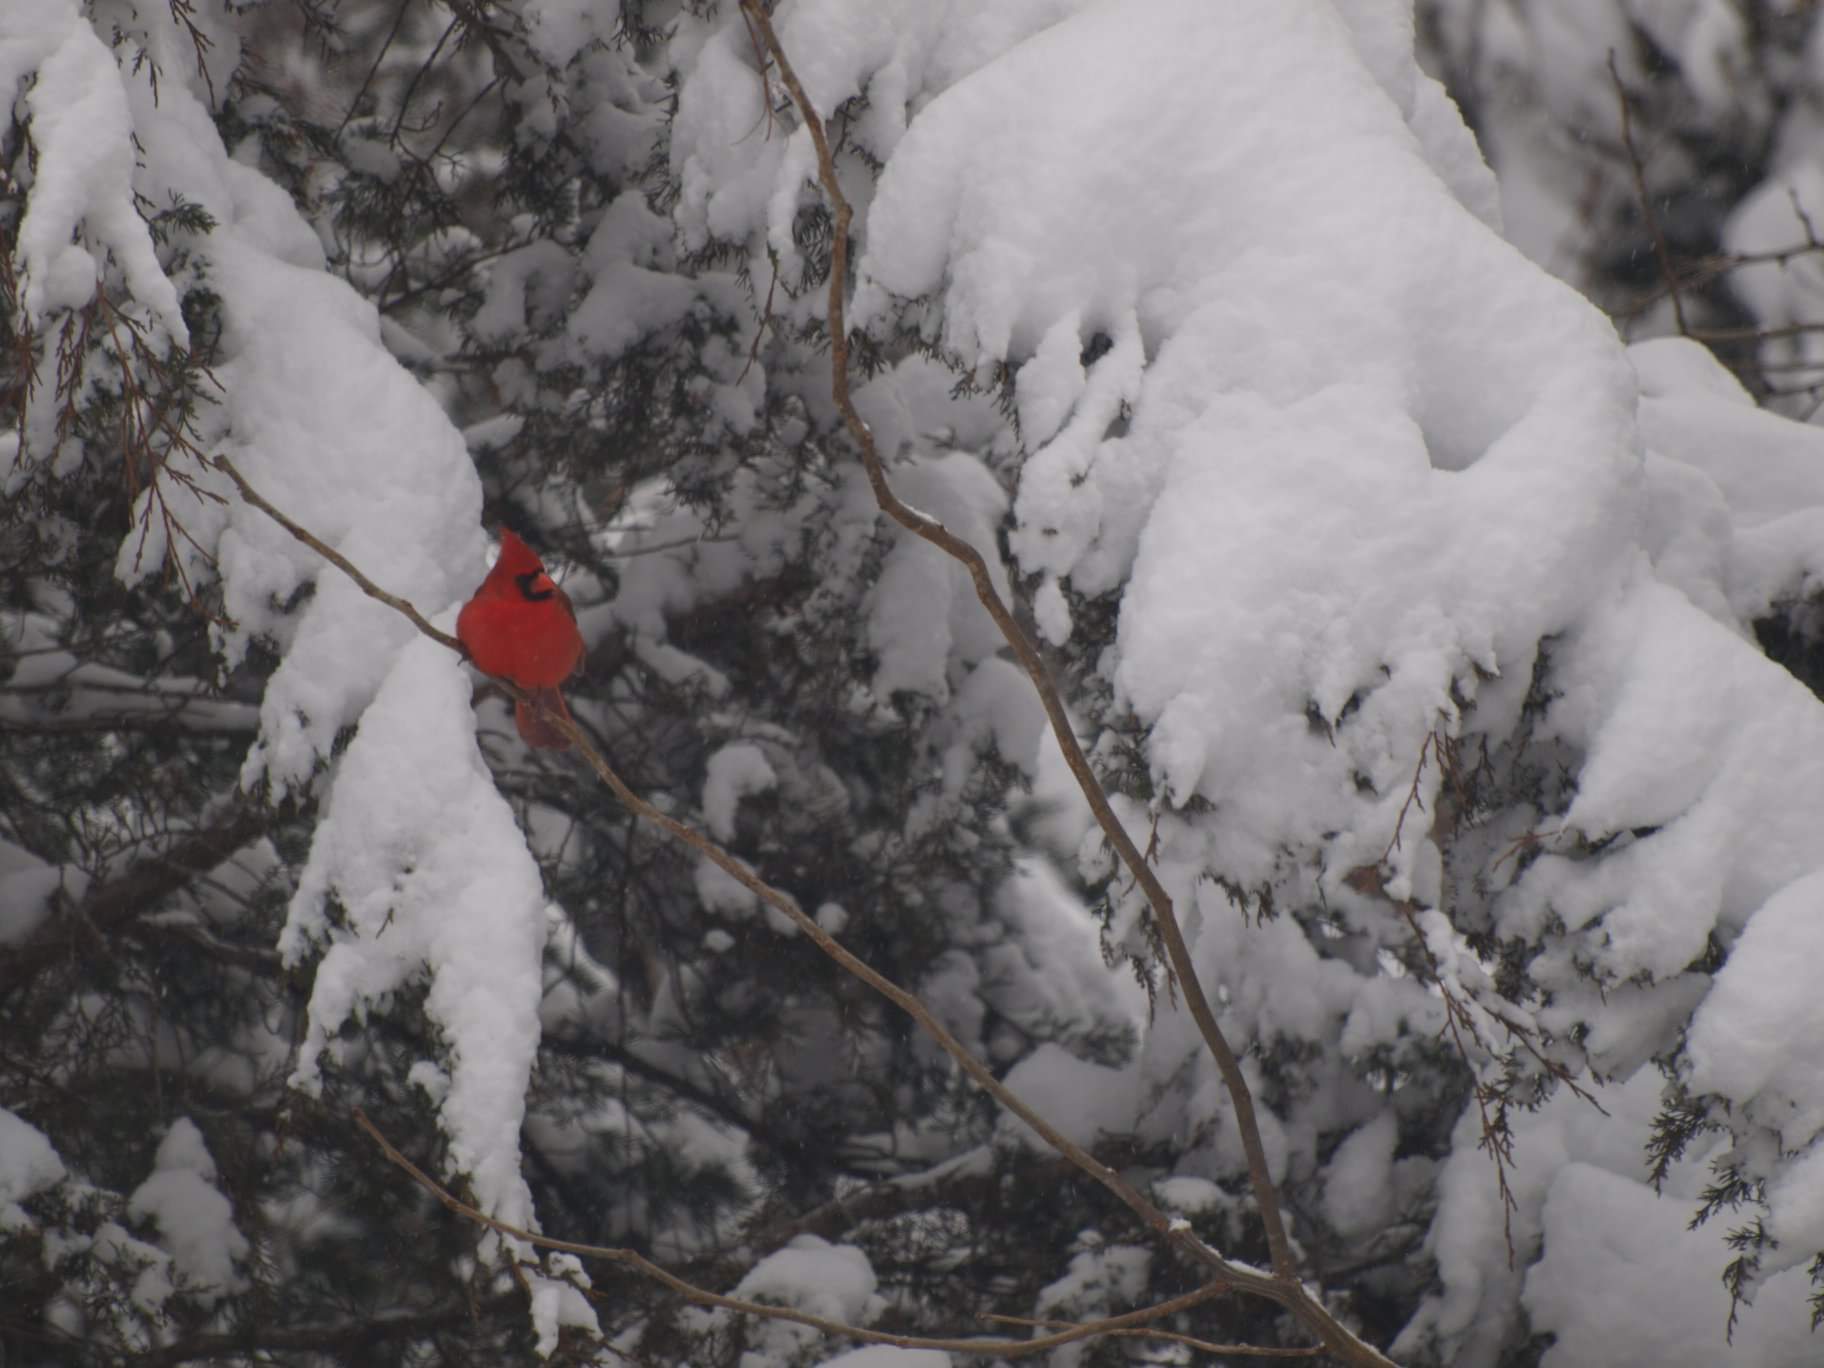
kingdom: Animalia
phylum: Chordata
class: Aves
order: Passeriformes
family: Cardinalidae
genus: Cardinalis
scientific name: Cardinalis cardinalis
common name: Northern cardinal
